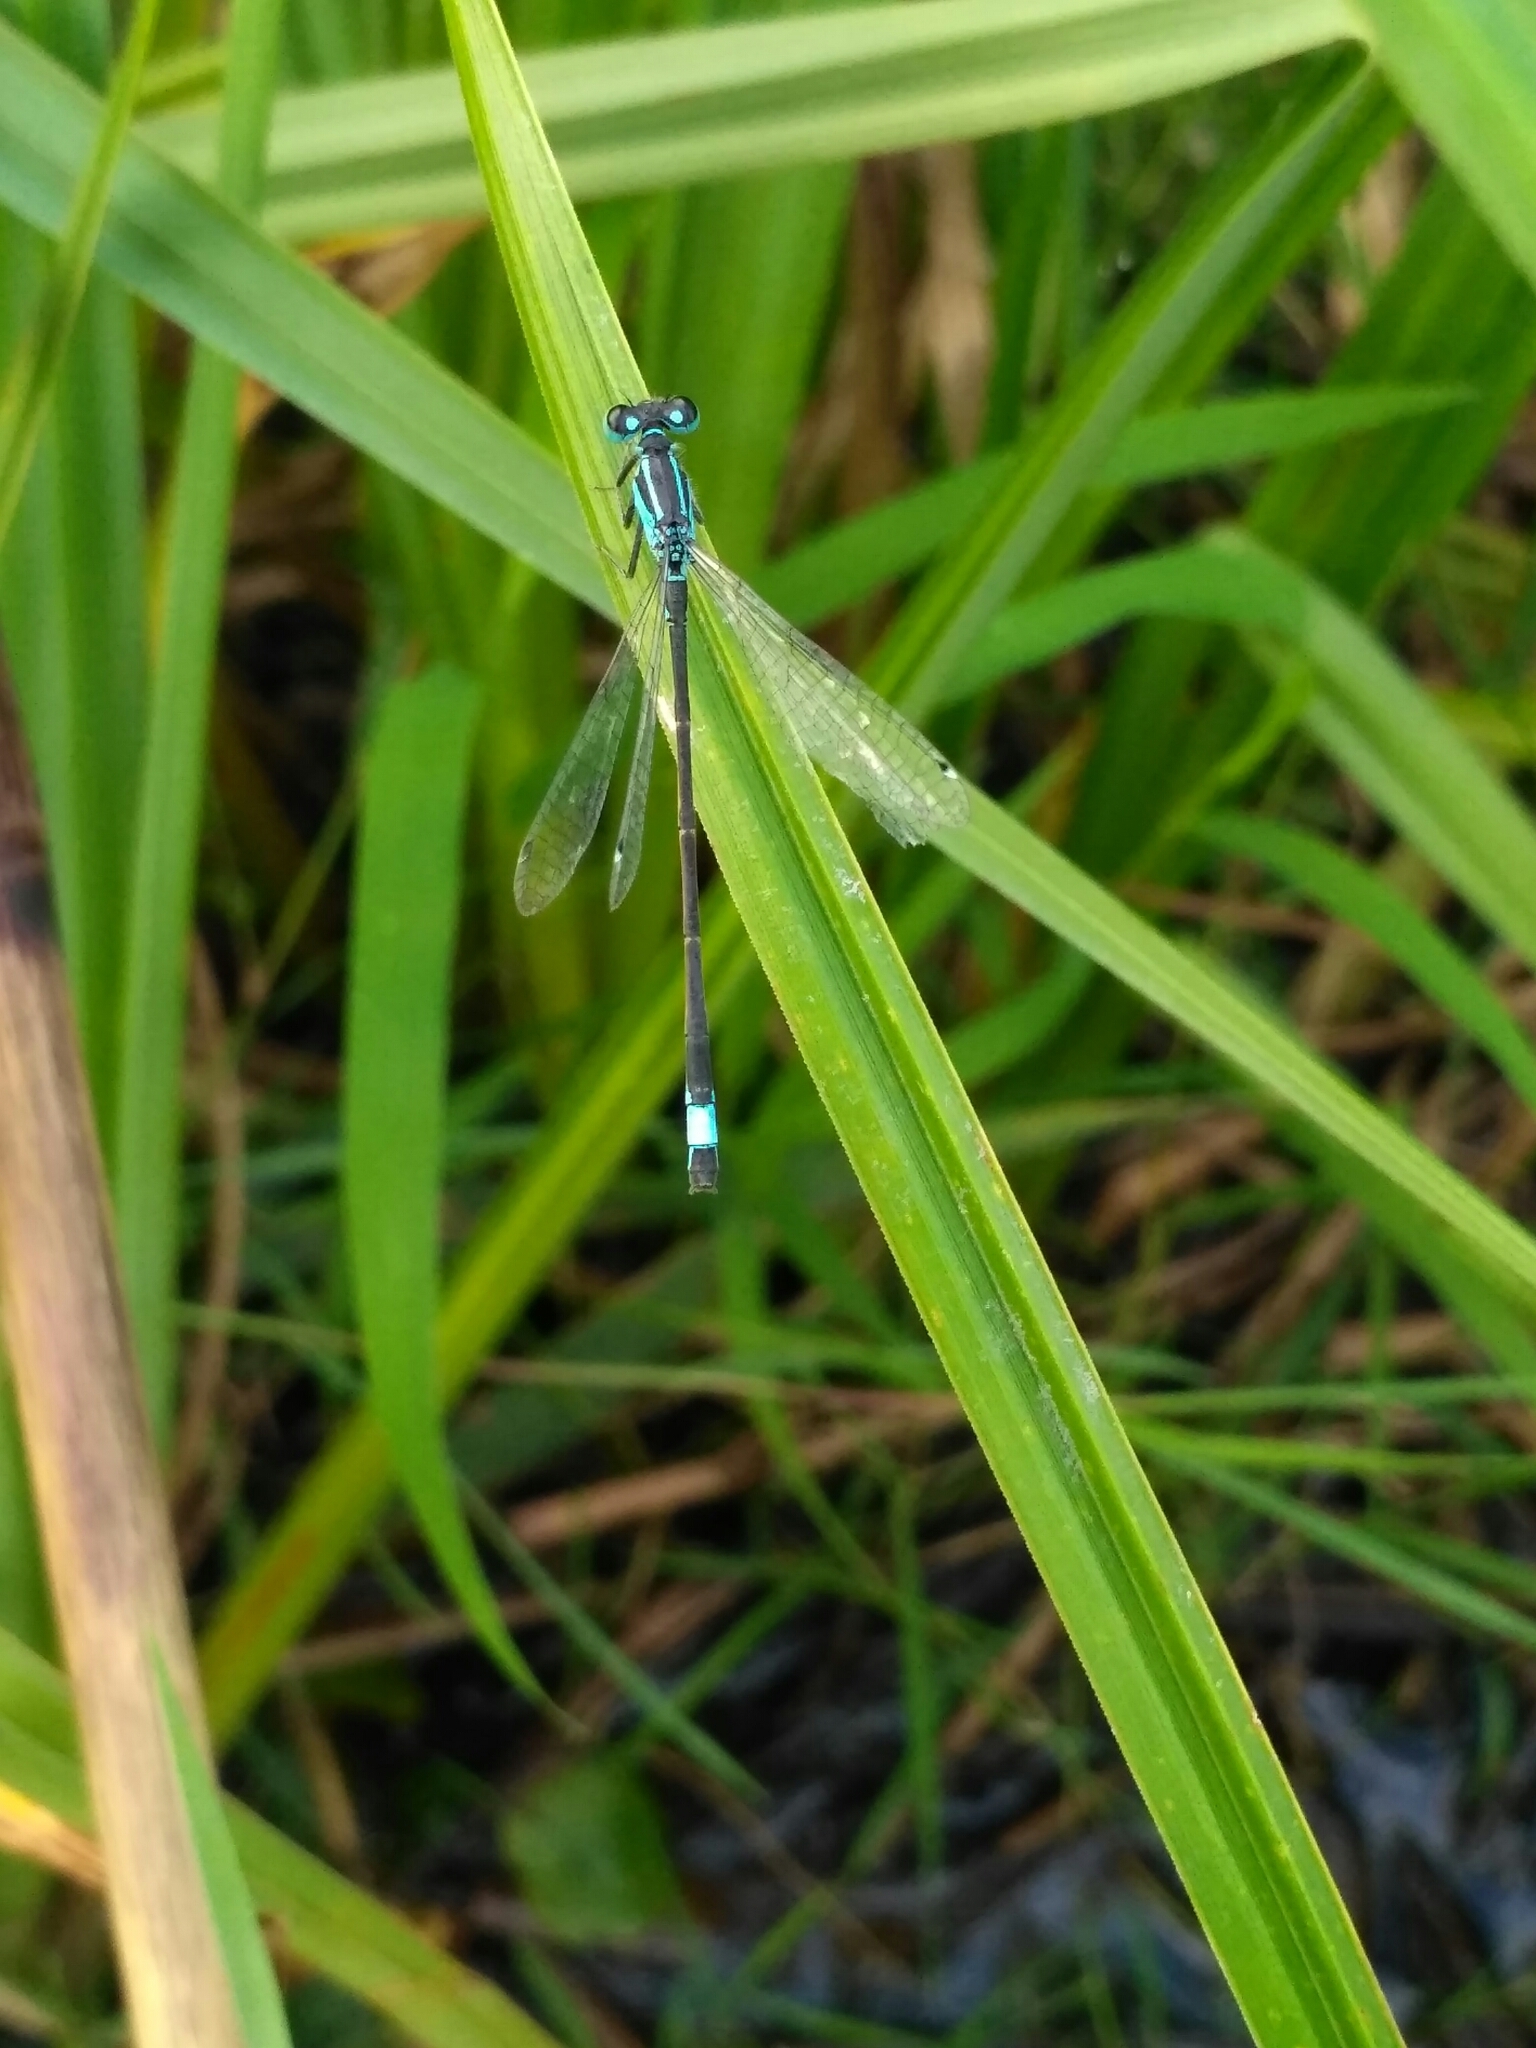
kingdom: Animalia
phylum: Arthropoda
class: Insecta
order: Odonata
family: Coenagrionidae
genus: Ischnura
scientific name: Ischnura elegans
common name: Blue-tailed damselfly
